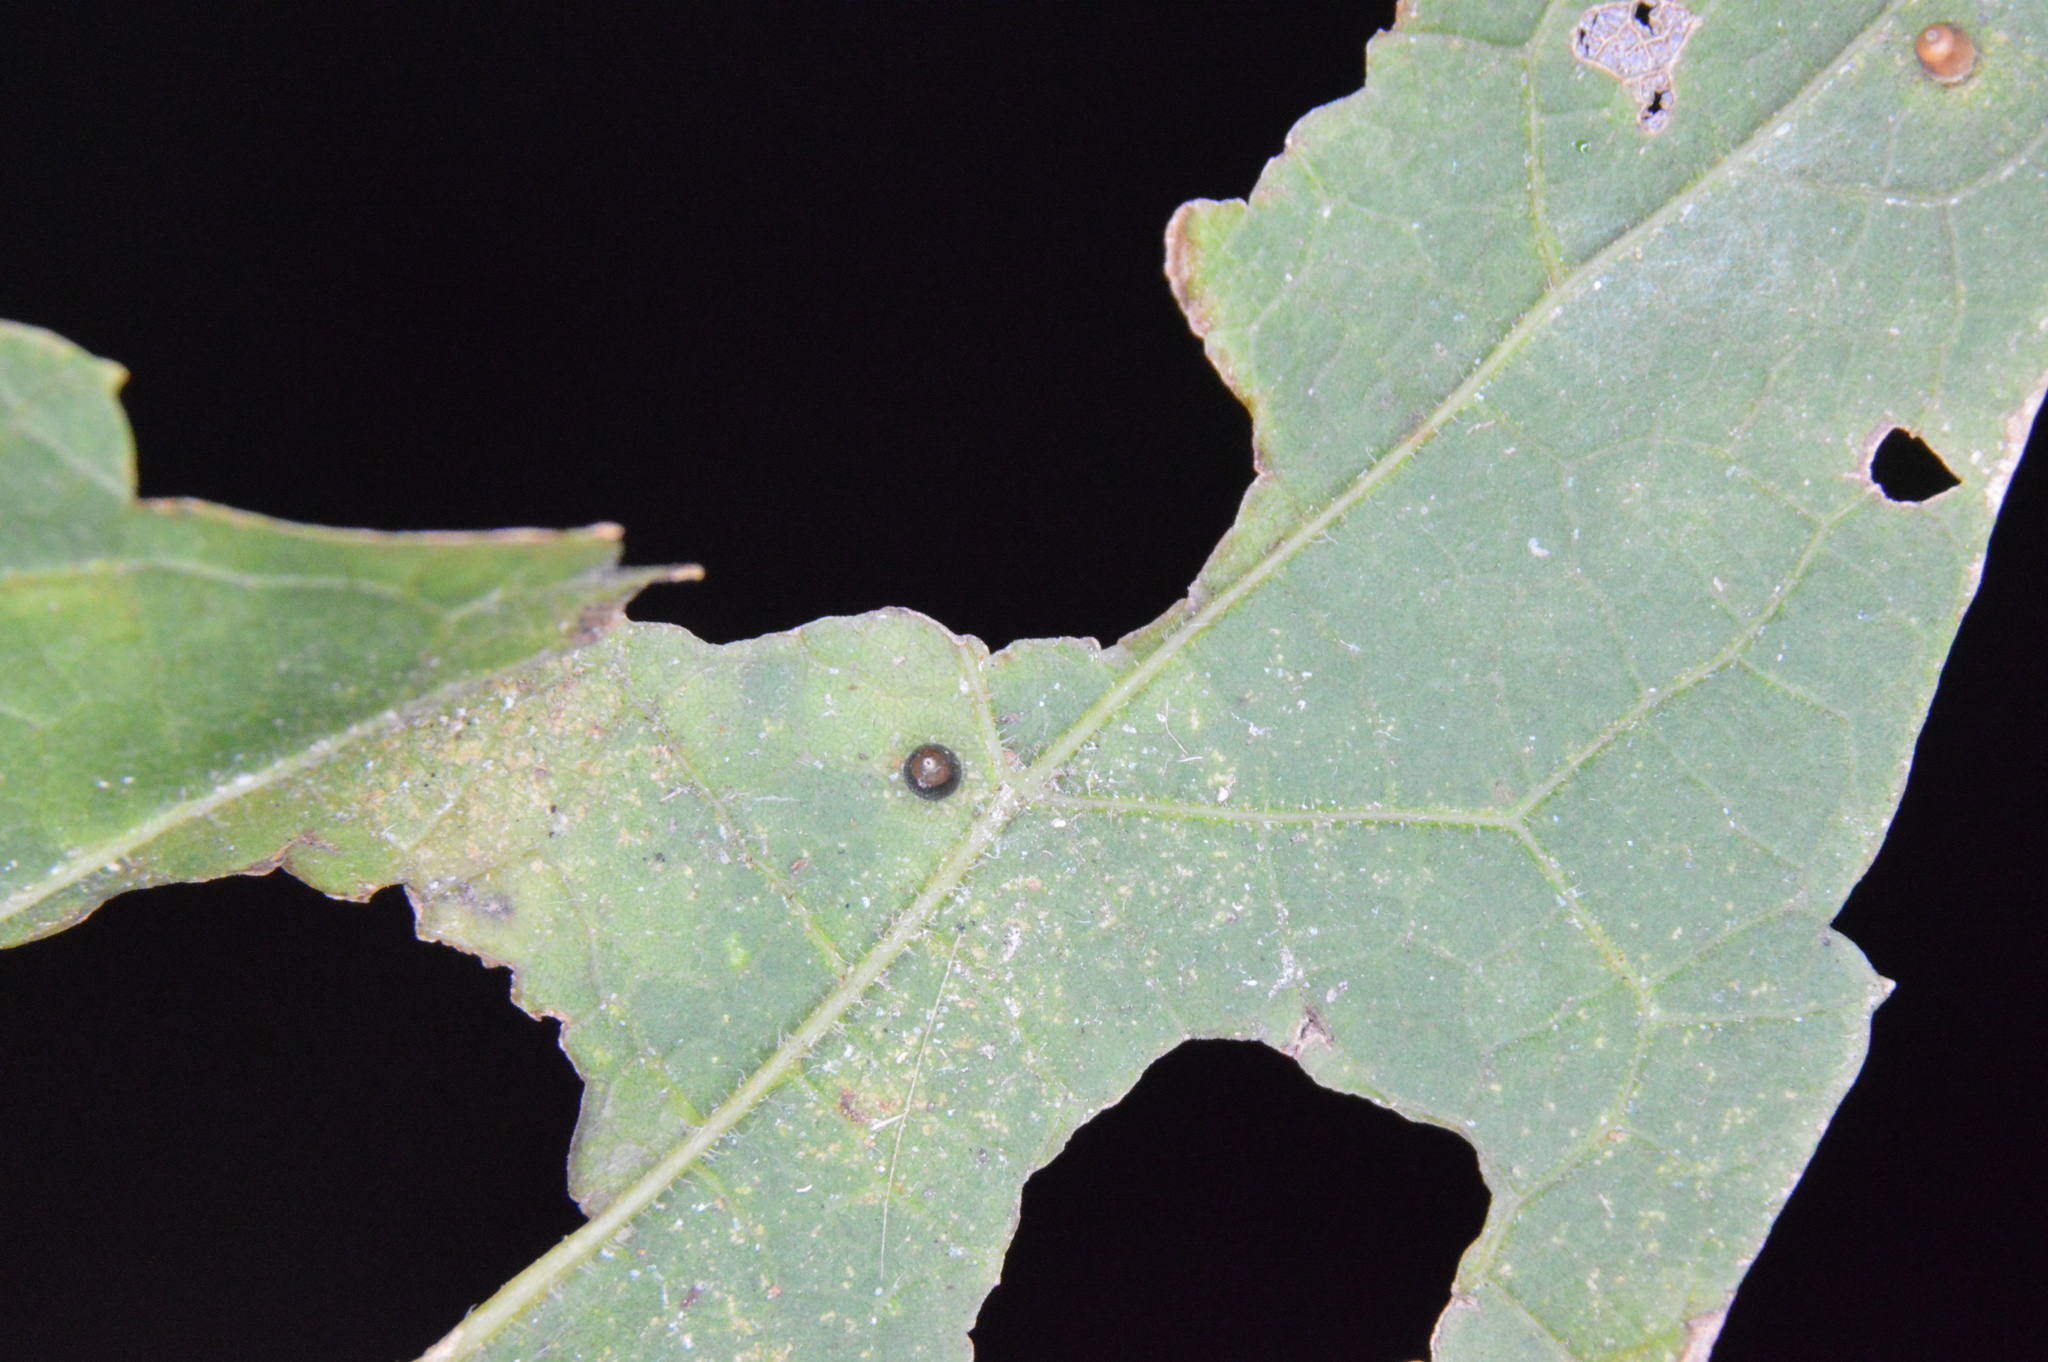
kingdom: Animalia
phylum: Arthropoda
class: Insecta
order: Diptera
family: Cecidomyiidae
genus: Celticecis
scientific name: Celticecis cupiformis
